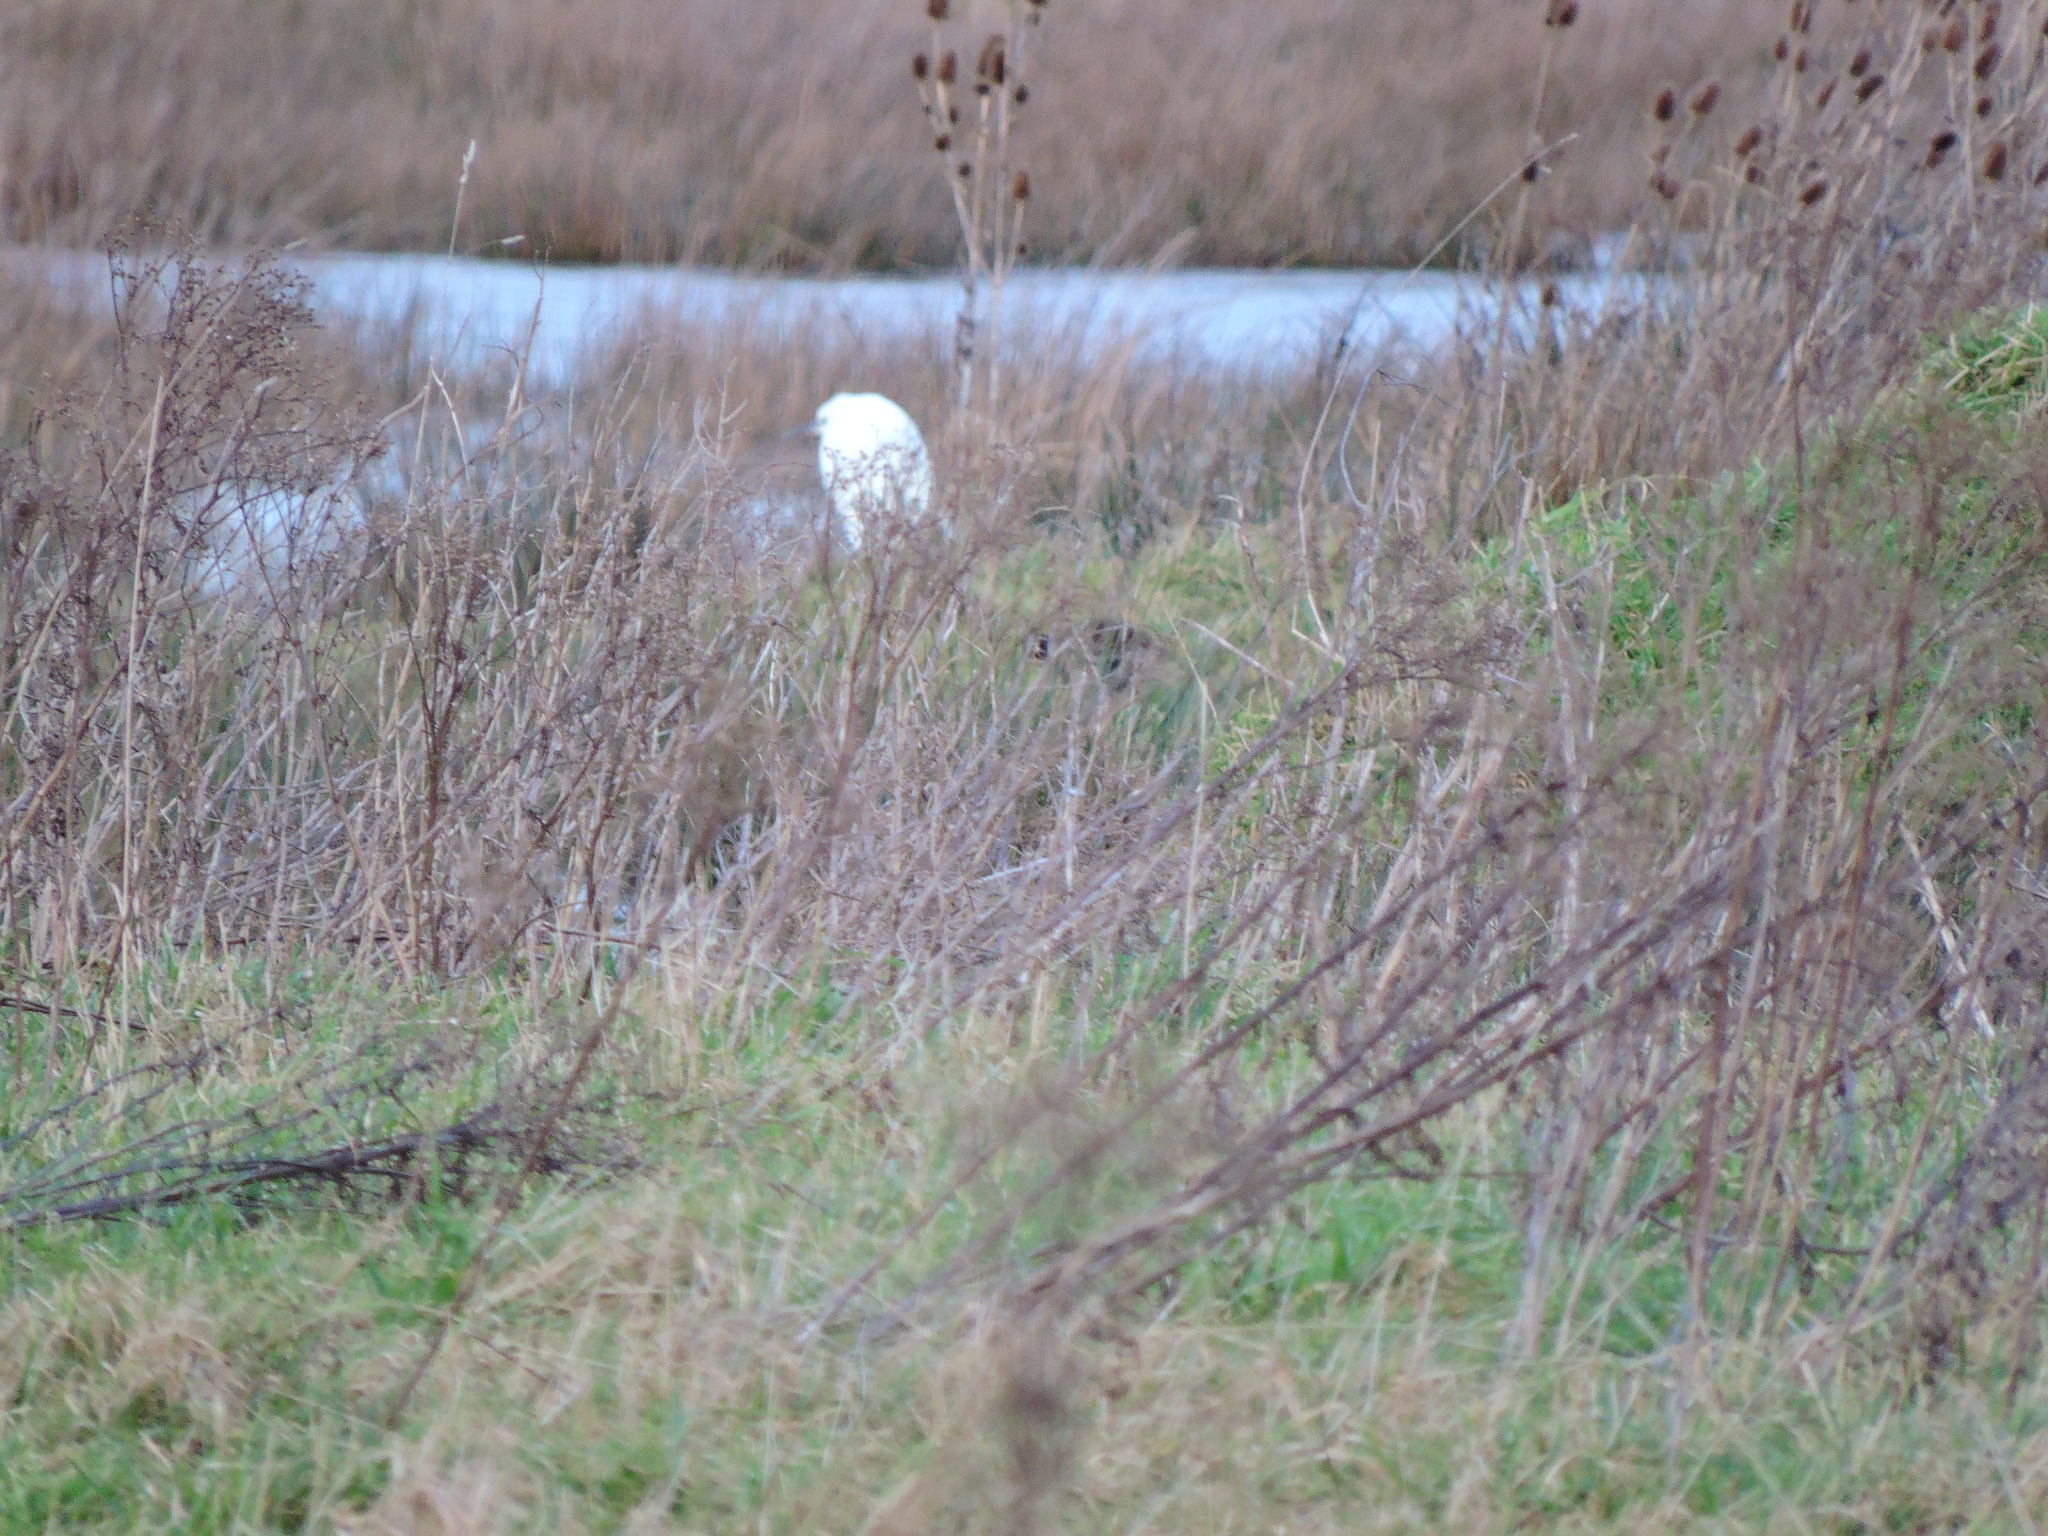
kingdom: Animalia
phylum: Chordata
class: Aves
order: Pelecaniformes
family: Ardeidae
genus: Egretta
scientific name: Egretta garzetta
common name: Little egret
